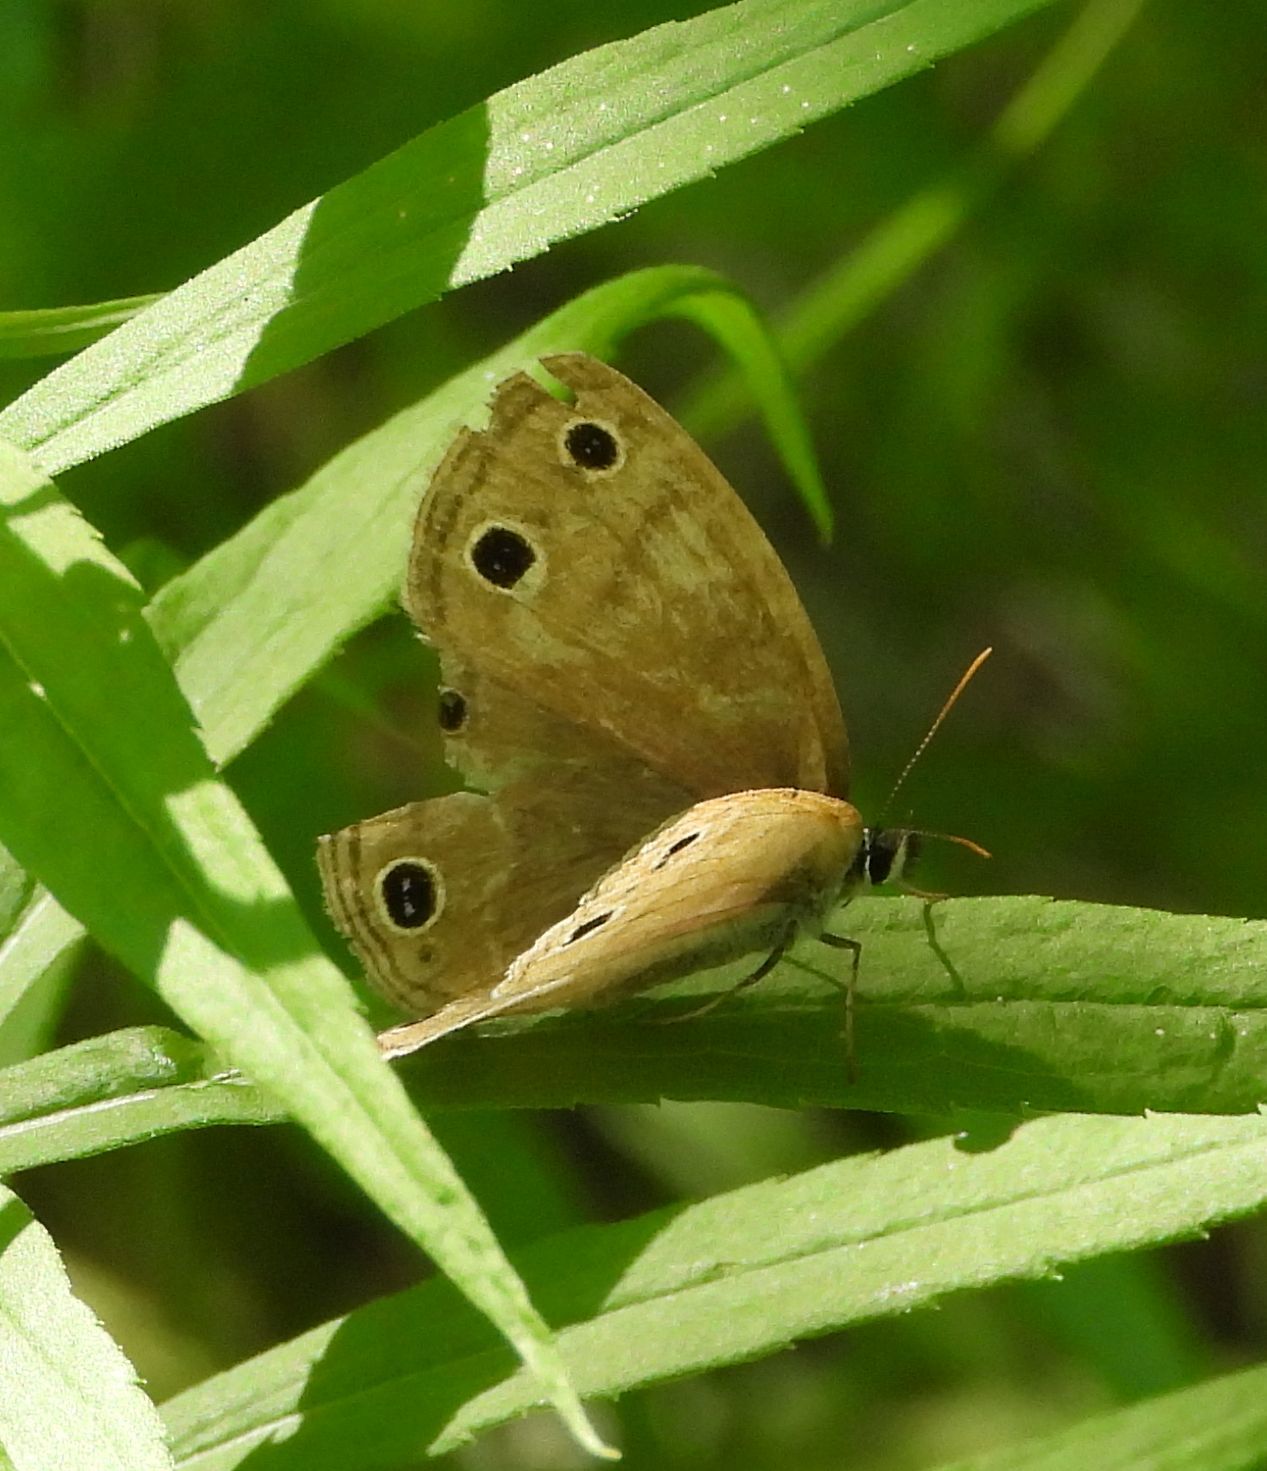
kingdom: Animalia
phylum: Arthropoda
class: Insecta
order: Lepidoptera
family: Nymphalidae
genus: Euptychia
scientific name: Euptychia cymela
